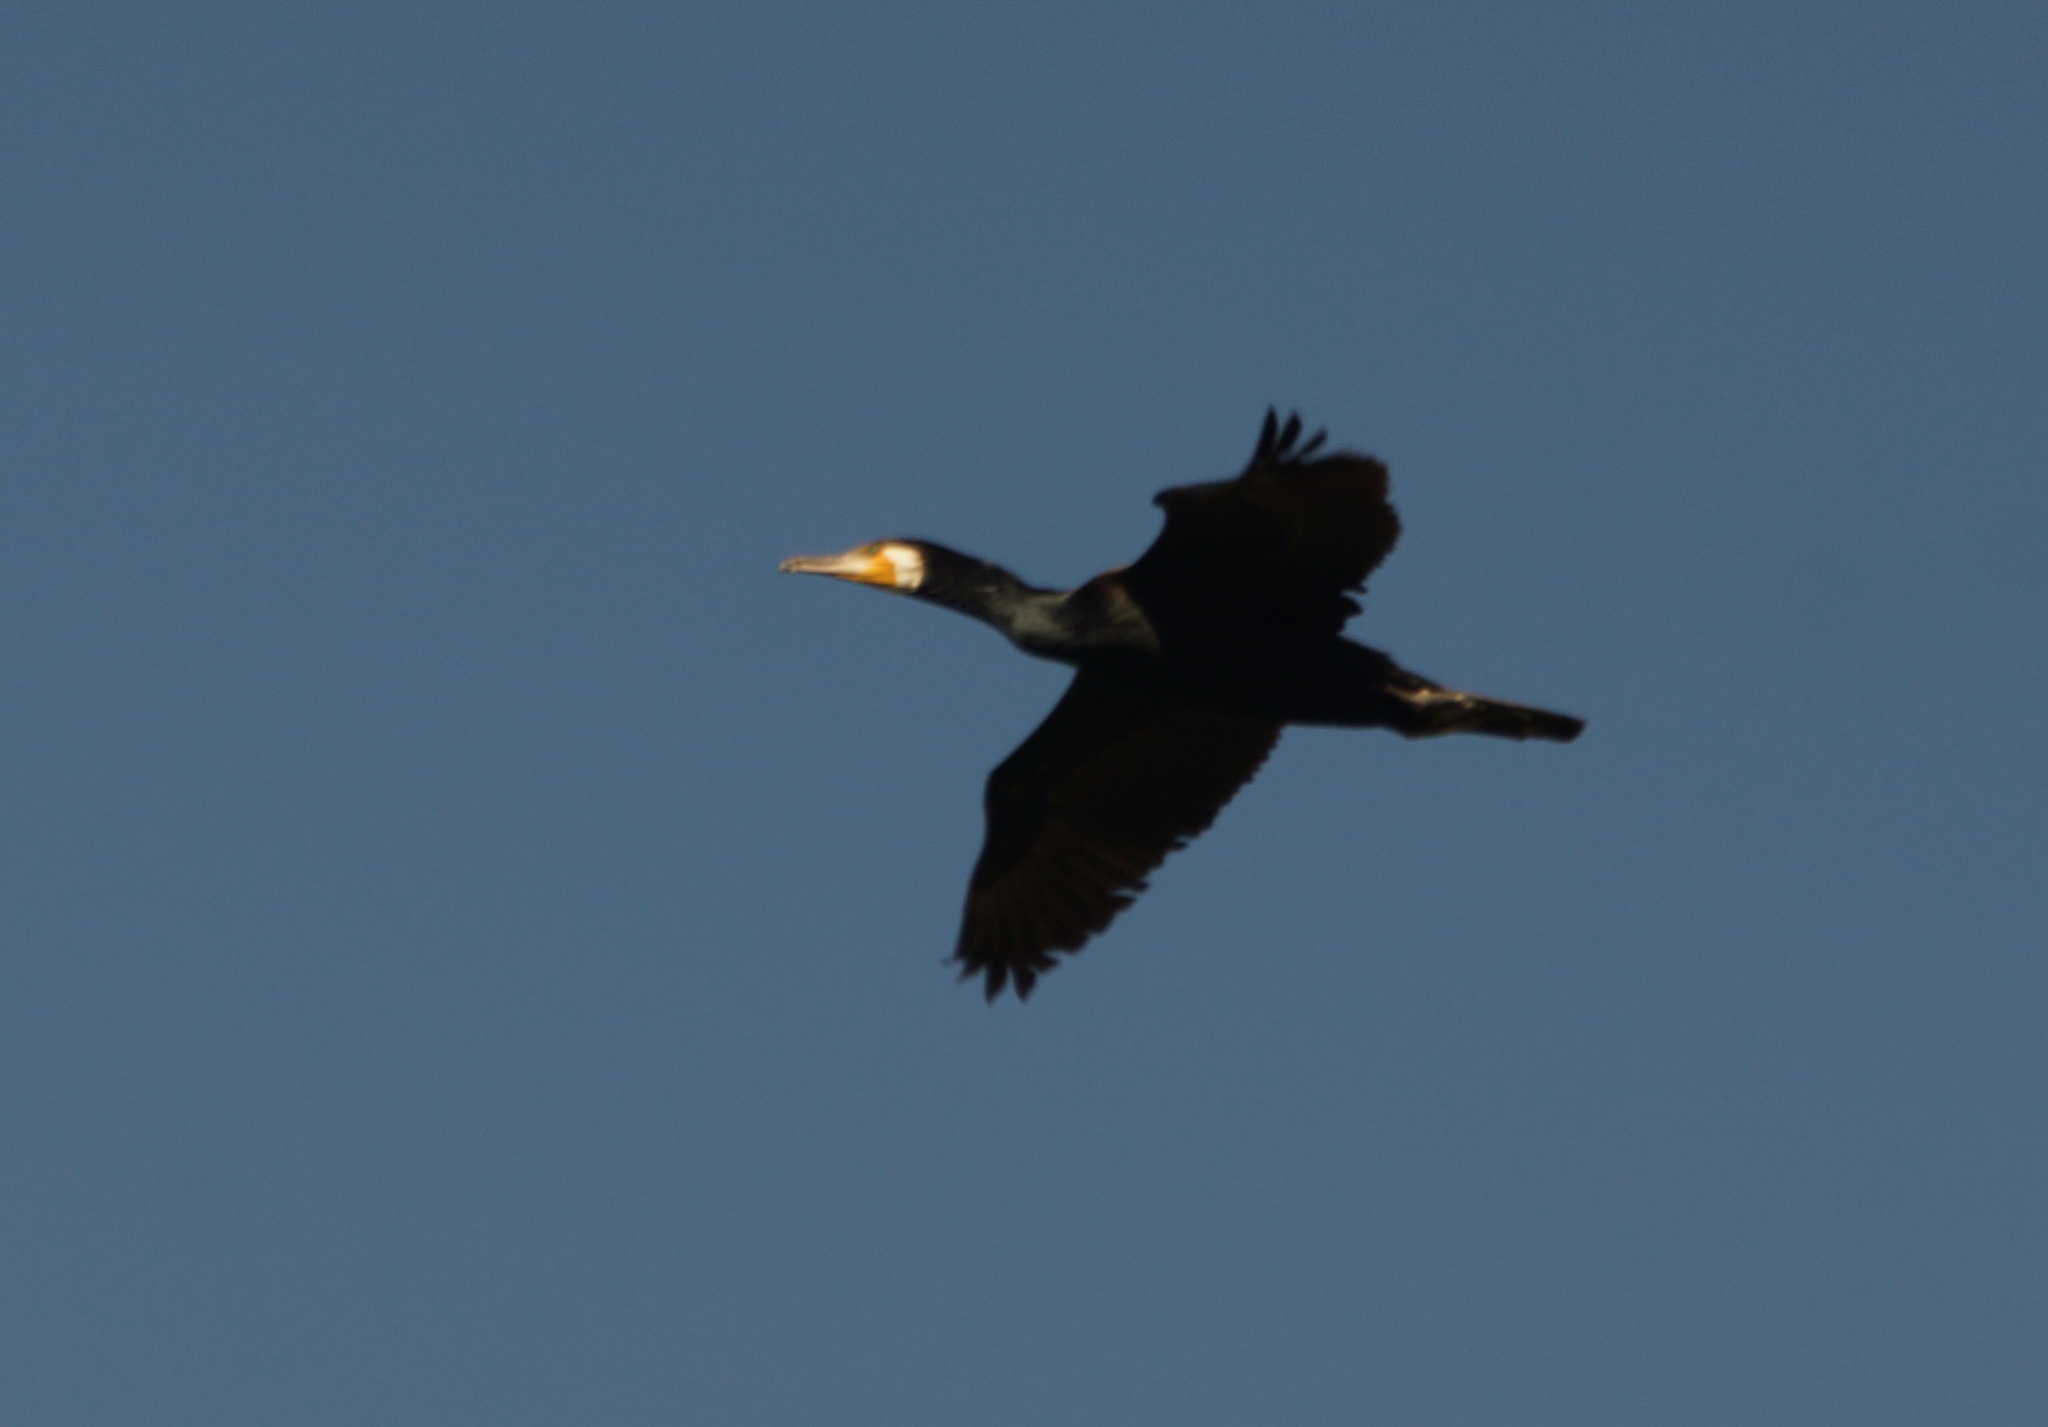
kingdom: Animalia
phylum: Chordata
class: Aves
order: Suliformes
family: Phalacrocoracidae
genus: Phalacrocorax
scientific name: Phalacrocorax carbo
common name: Great cormorant
